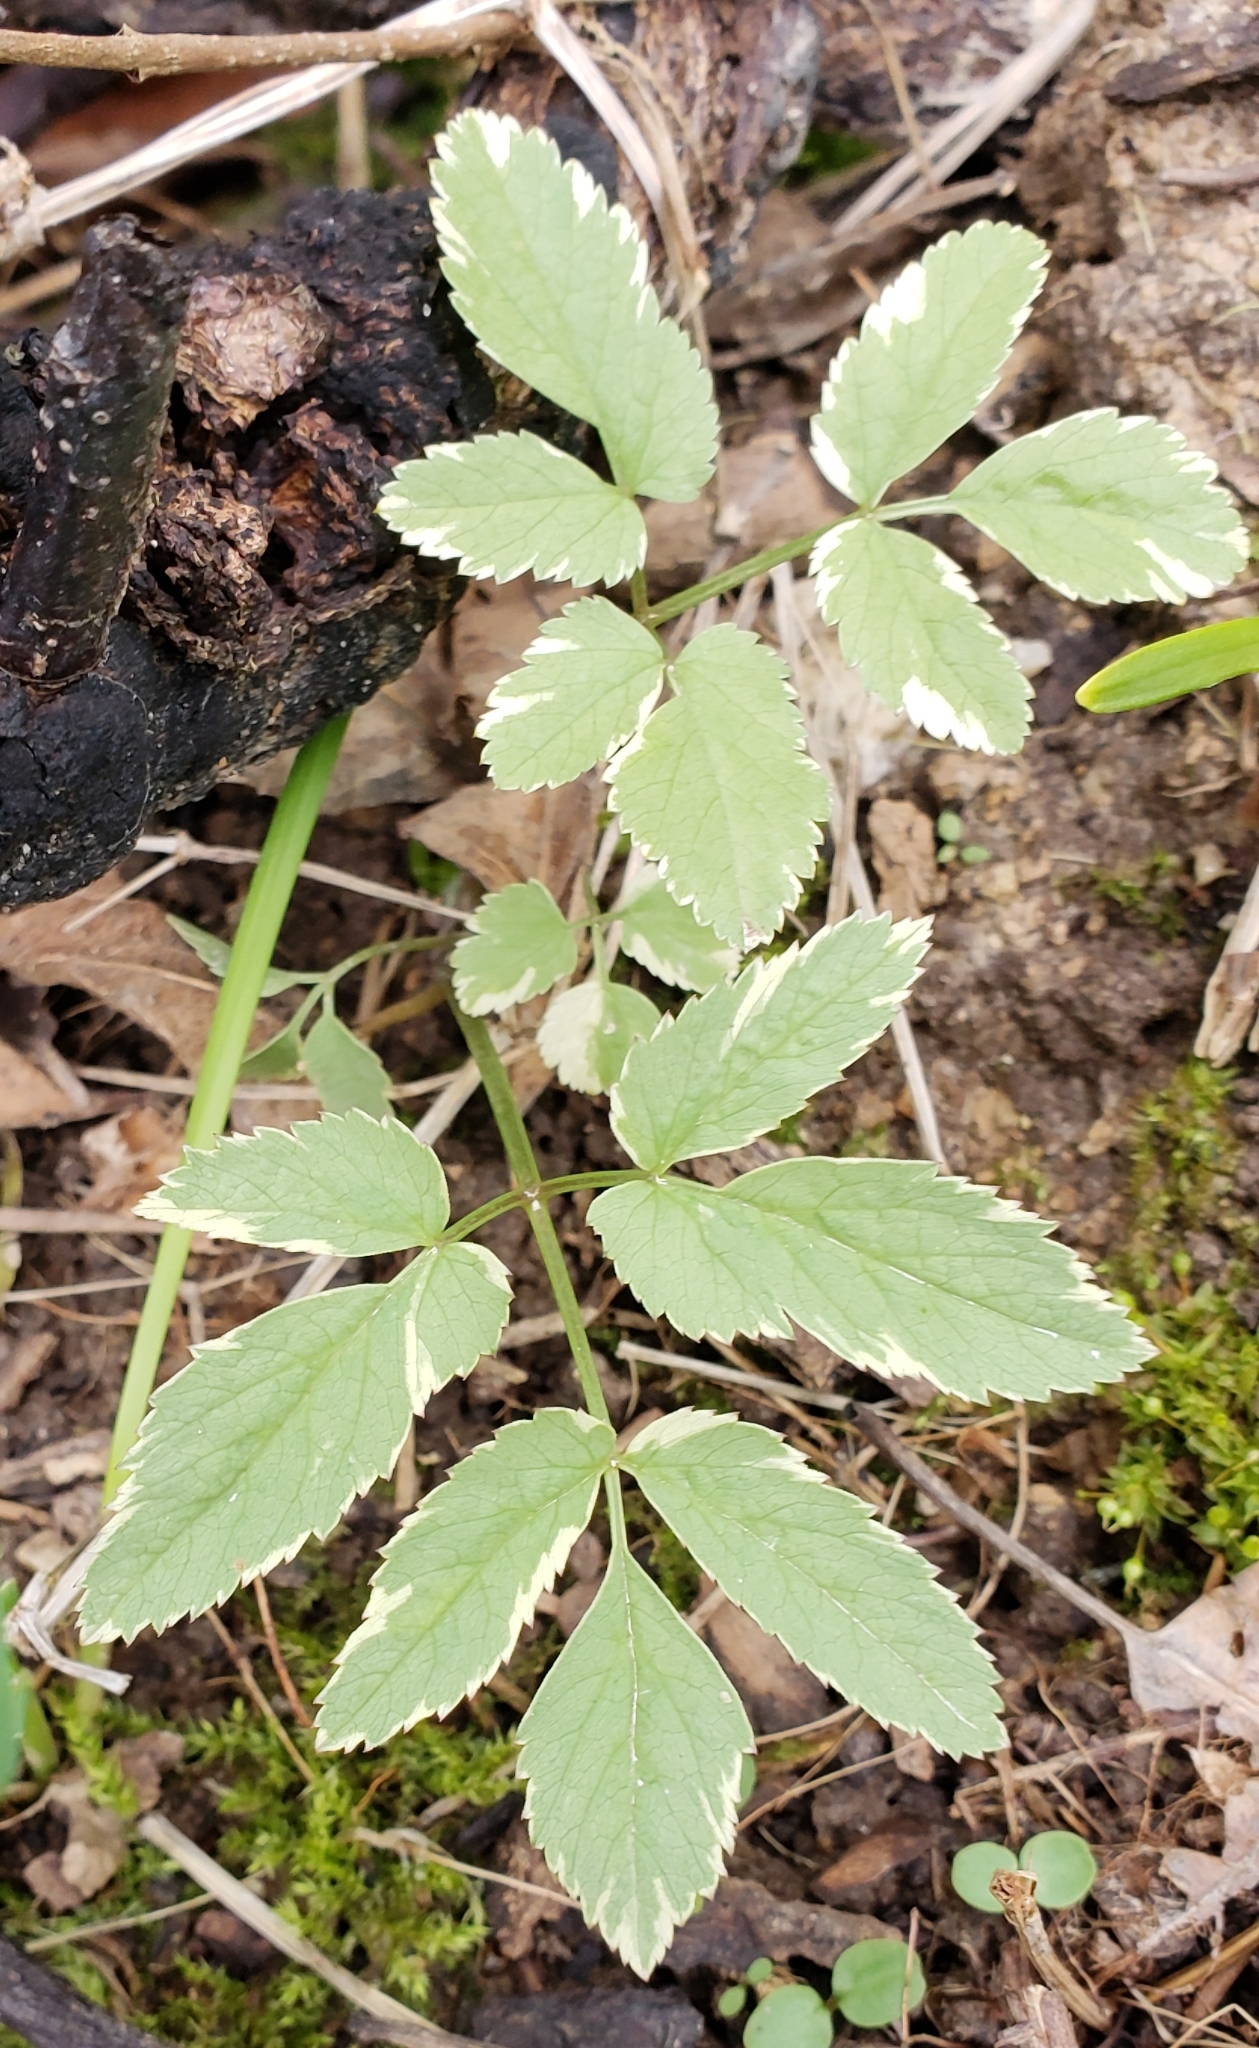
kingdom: Plantae
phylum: Tracheophyta
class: Magnoliopsida
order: Apiales
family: Apiaceae
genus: Aegopodium
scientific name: Aegopodium podagraria
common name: Ground-elder
